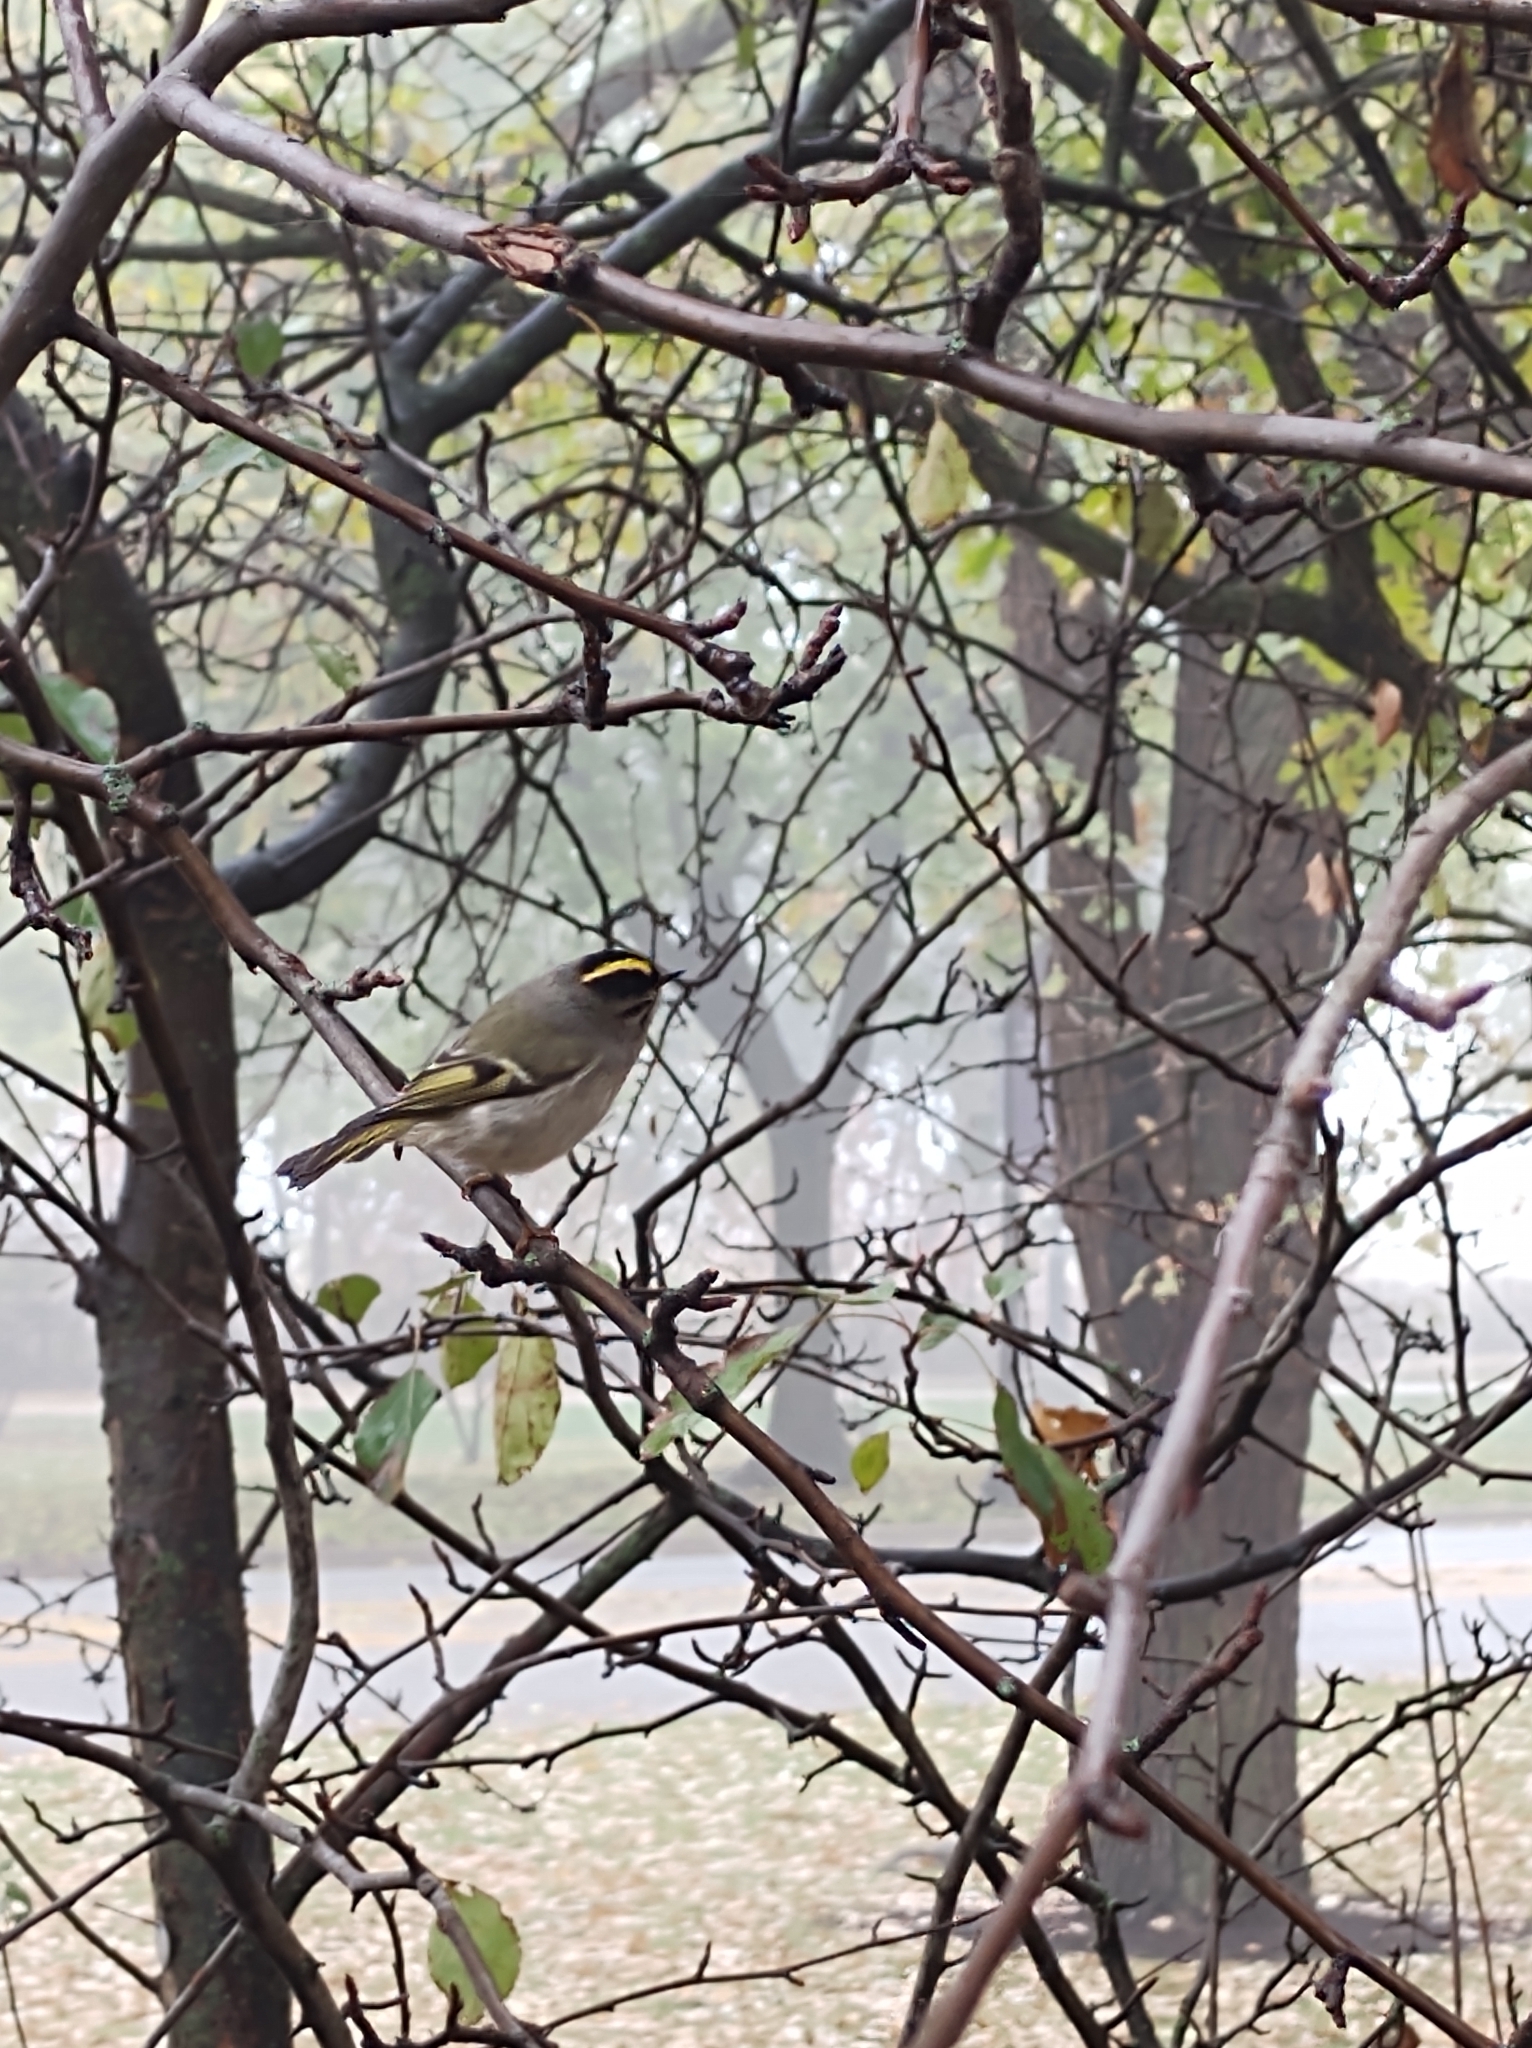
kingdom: Animalia
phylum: Chordata
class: Aves
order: Passeriformes
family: Regulidae
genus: Regulus
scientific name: Regulus satrapa
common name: Golden-crowned kinglet
